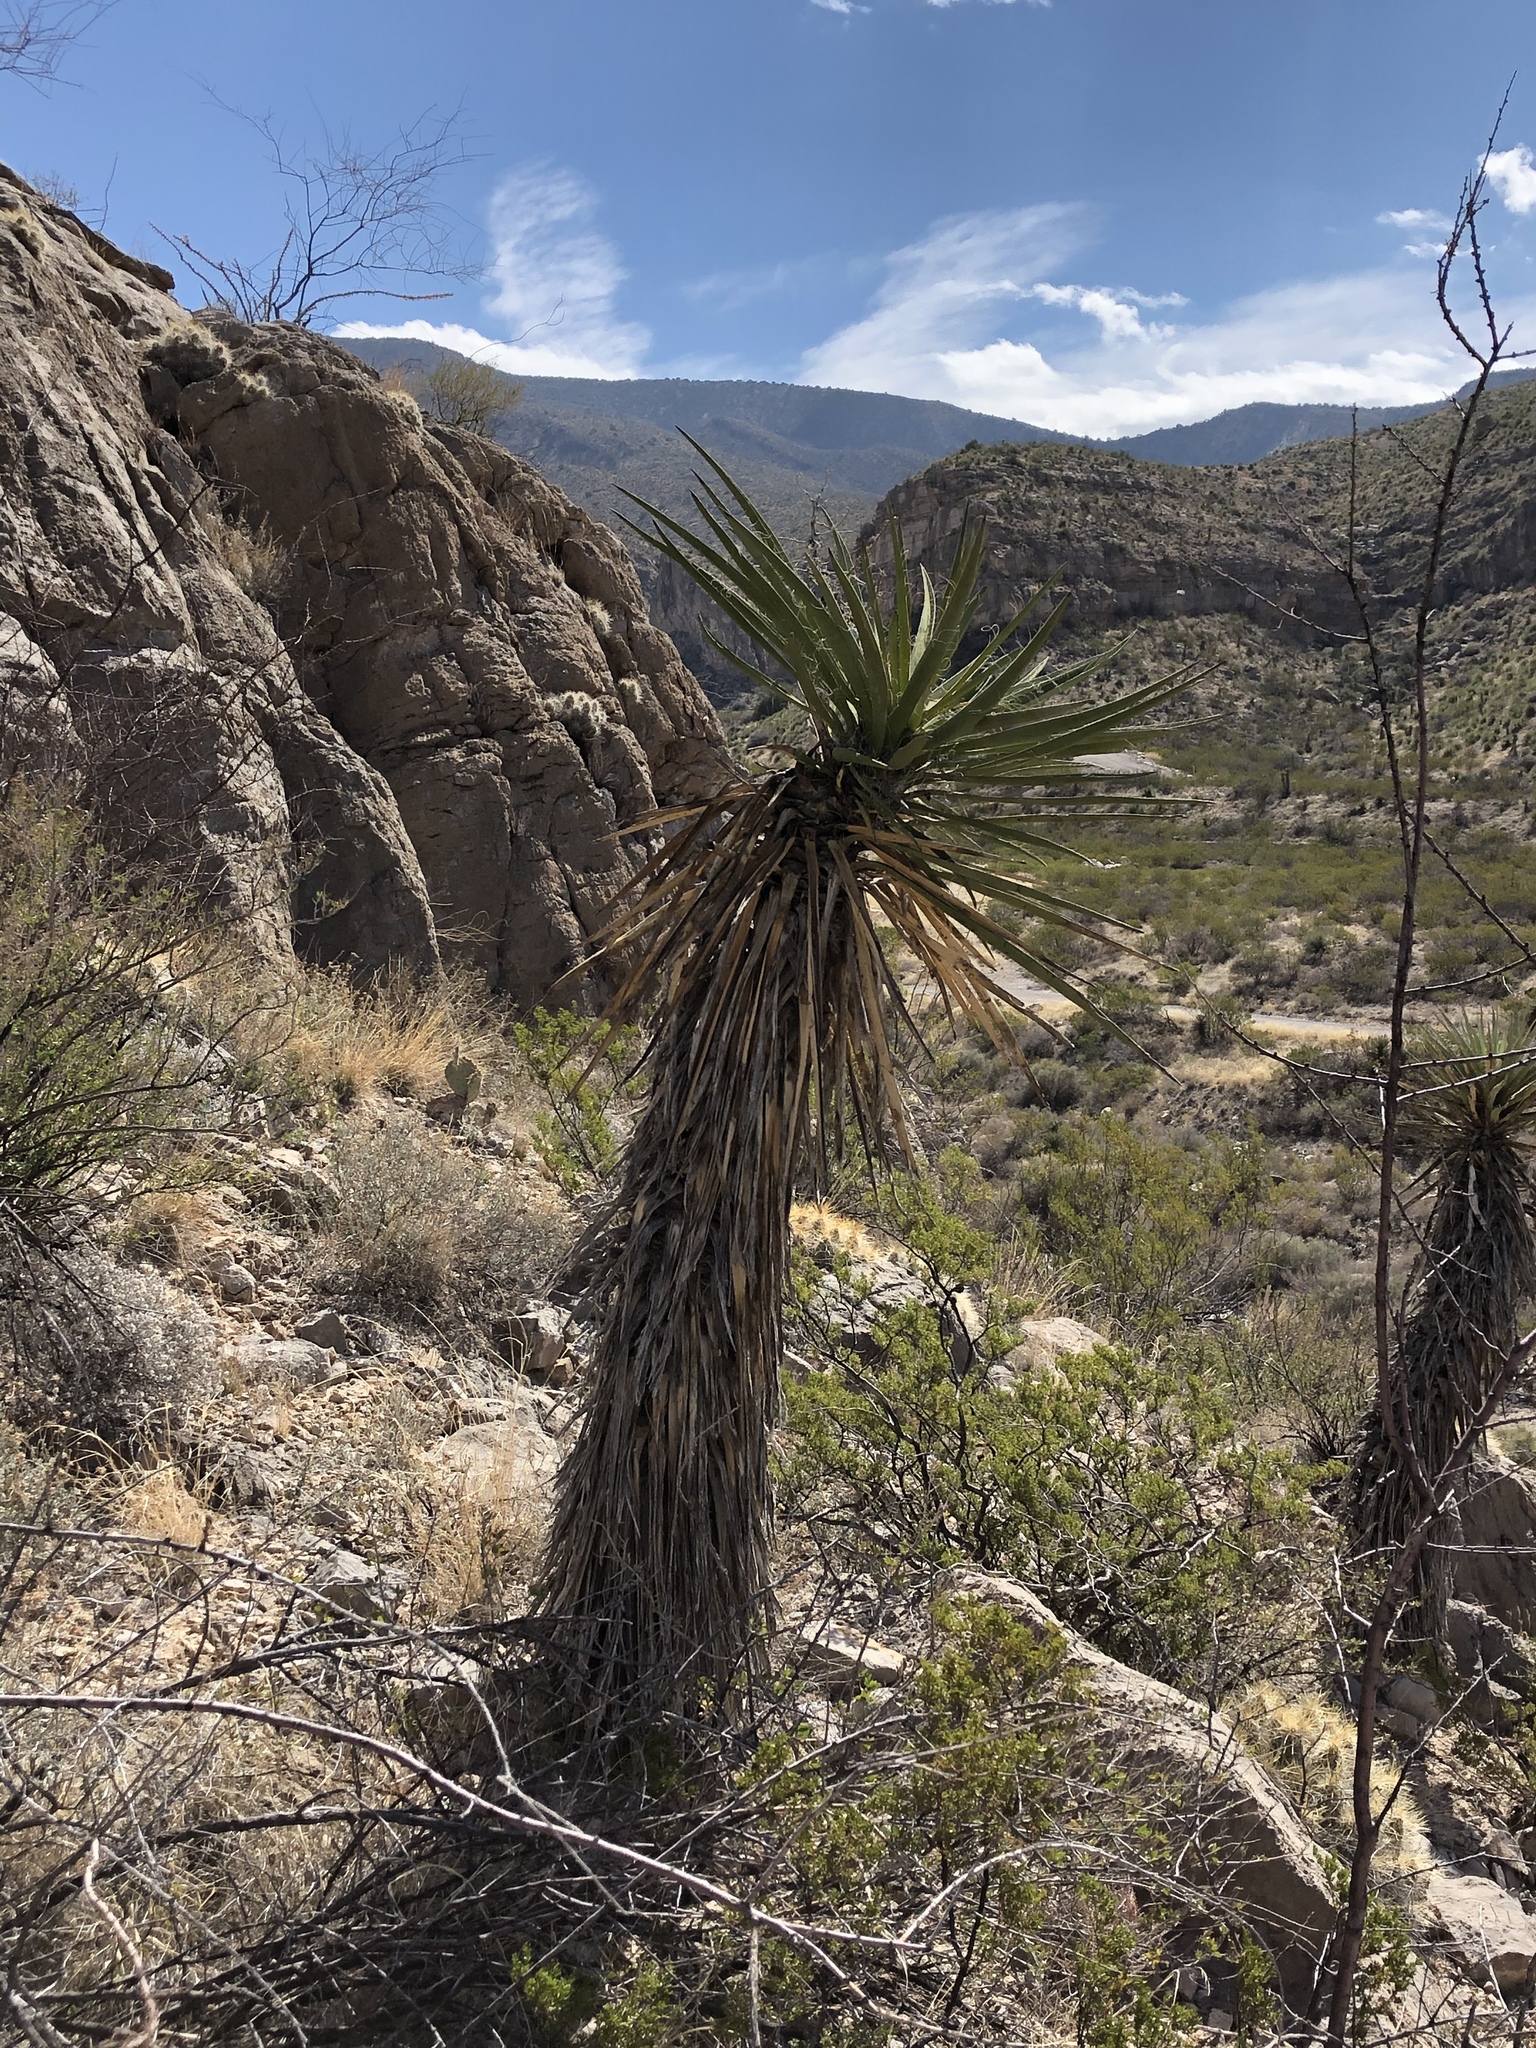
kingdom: Plantae
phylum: Tracheophyta
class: Liliopsida
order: Asparagales
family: Asparagaceae
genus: Yucca
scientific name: Yucca treculiana
